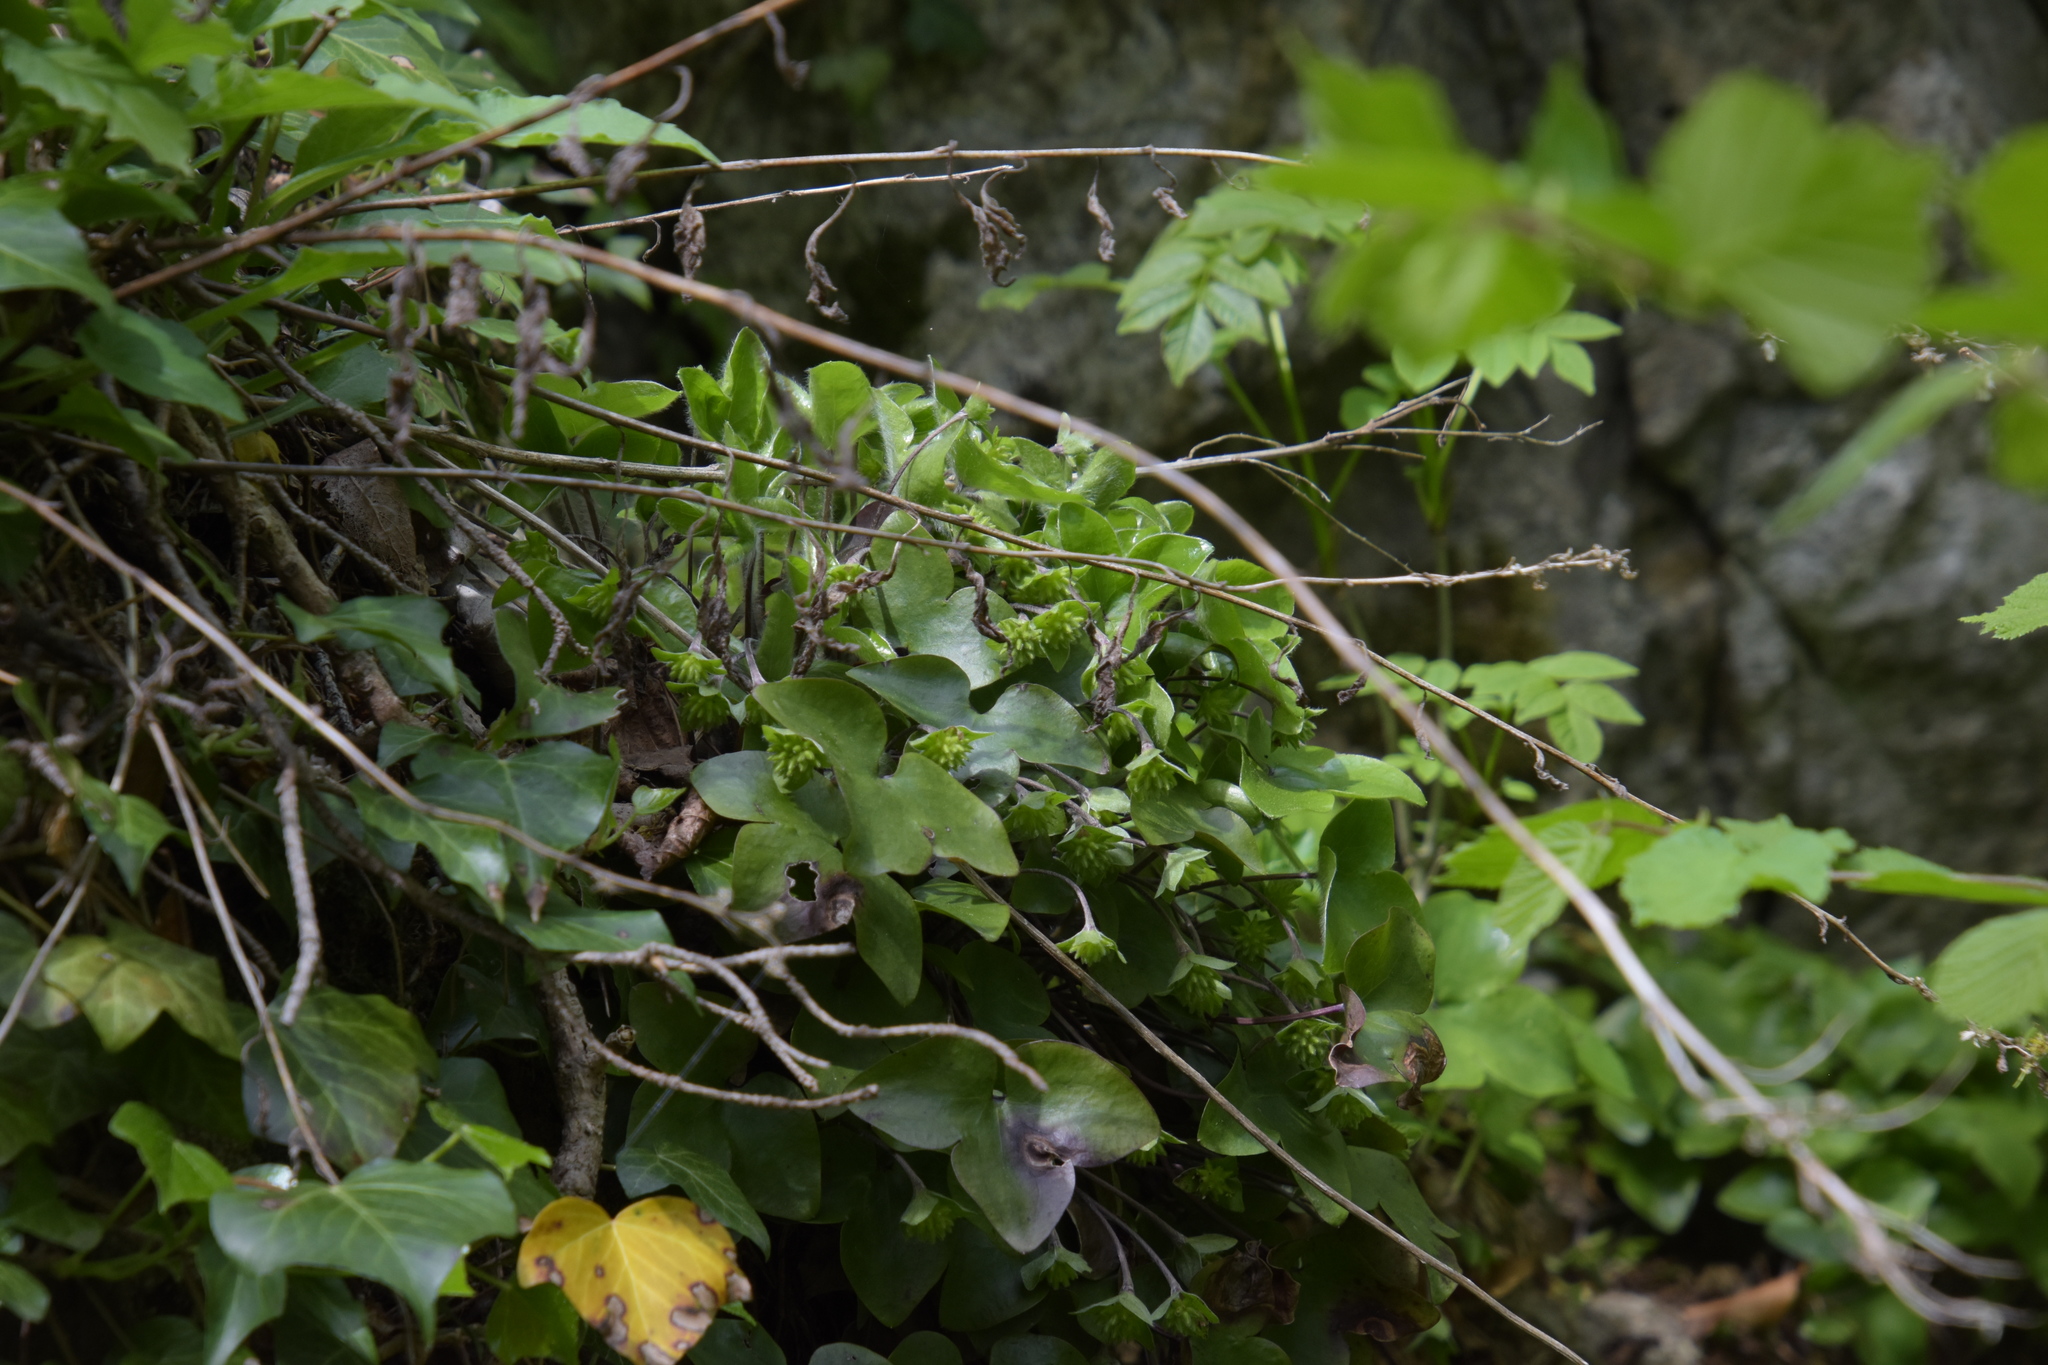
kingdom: Plantae
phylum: Tracheophyta
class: Magnoliopsida
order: Ranunculales
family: Ranunculaceae
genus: Hepatica
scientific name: Hepatica nobilis
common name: Liverleaf
